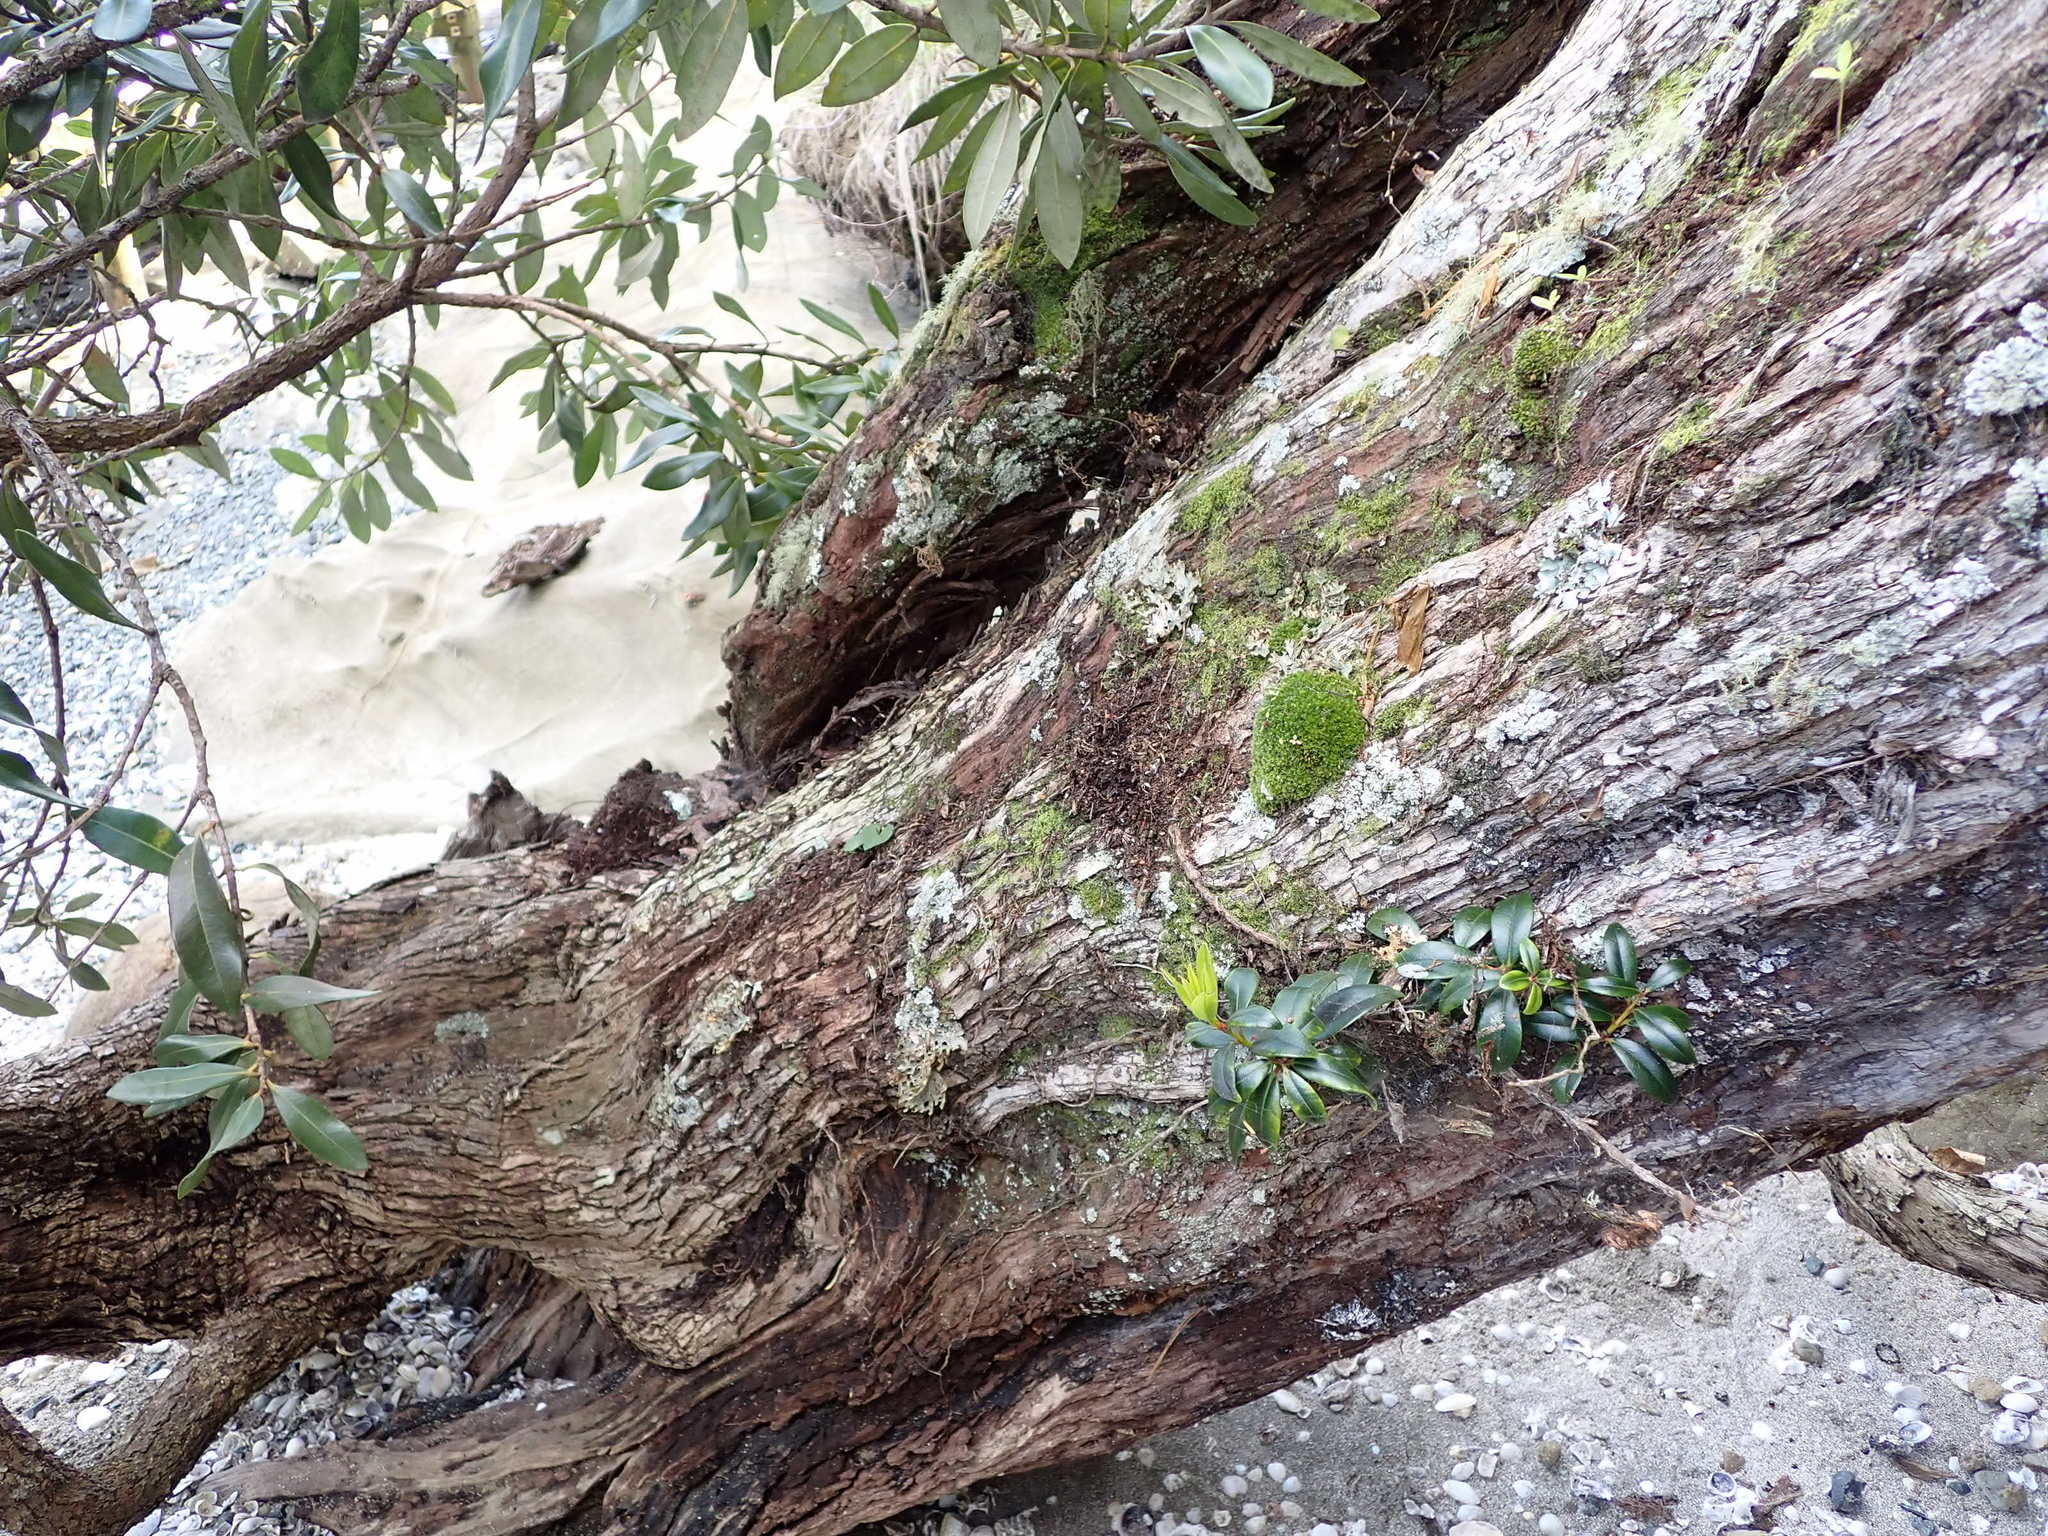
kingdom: Plantae
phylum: Tracheophyta
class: Liliopsida
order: Asparagales
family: Asteliaceae
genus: Astelia
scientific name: Astelia hastata
